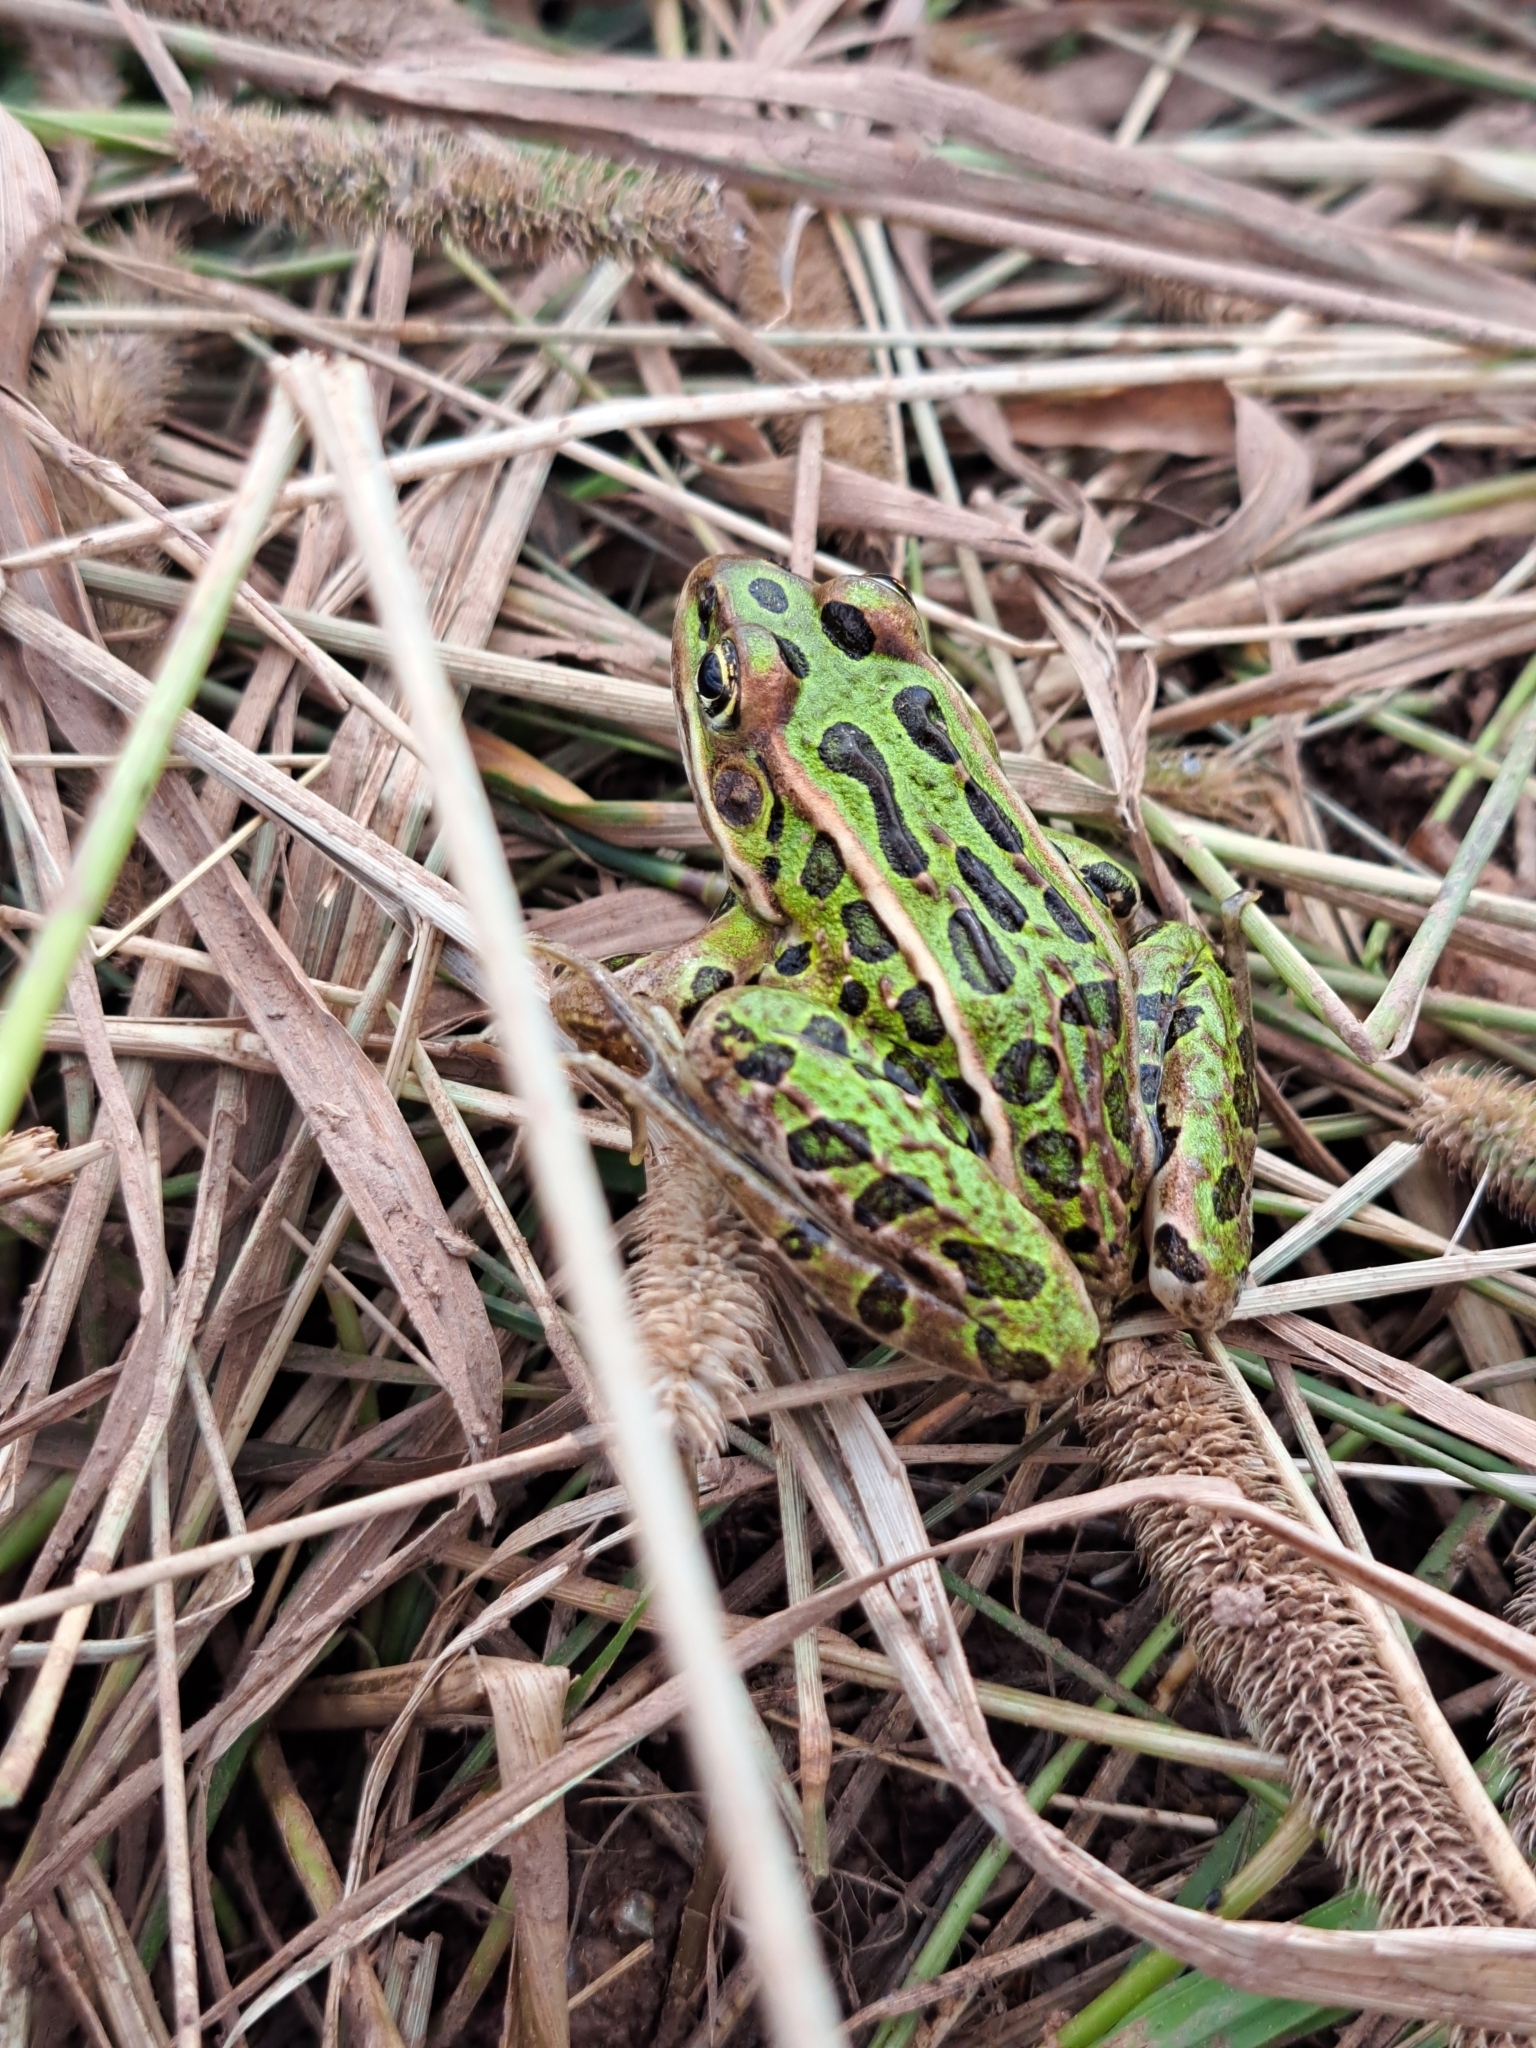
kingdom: Animalia
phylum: Chordata
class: Amphibia
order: Anura
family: Ranidae
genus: Lithobates
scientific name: Lithobates pipiens
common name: Northern leopard frog
